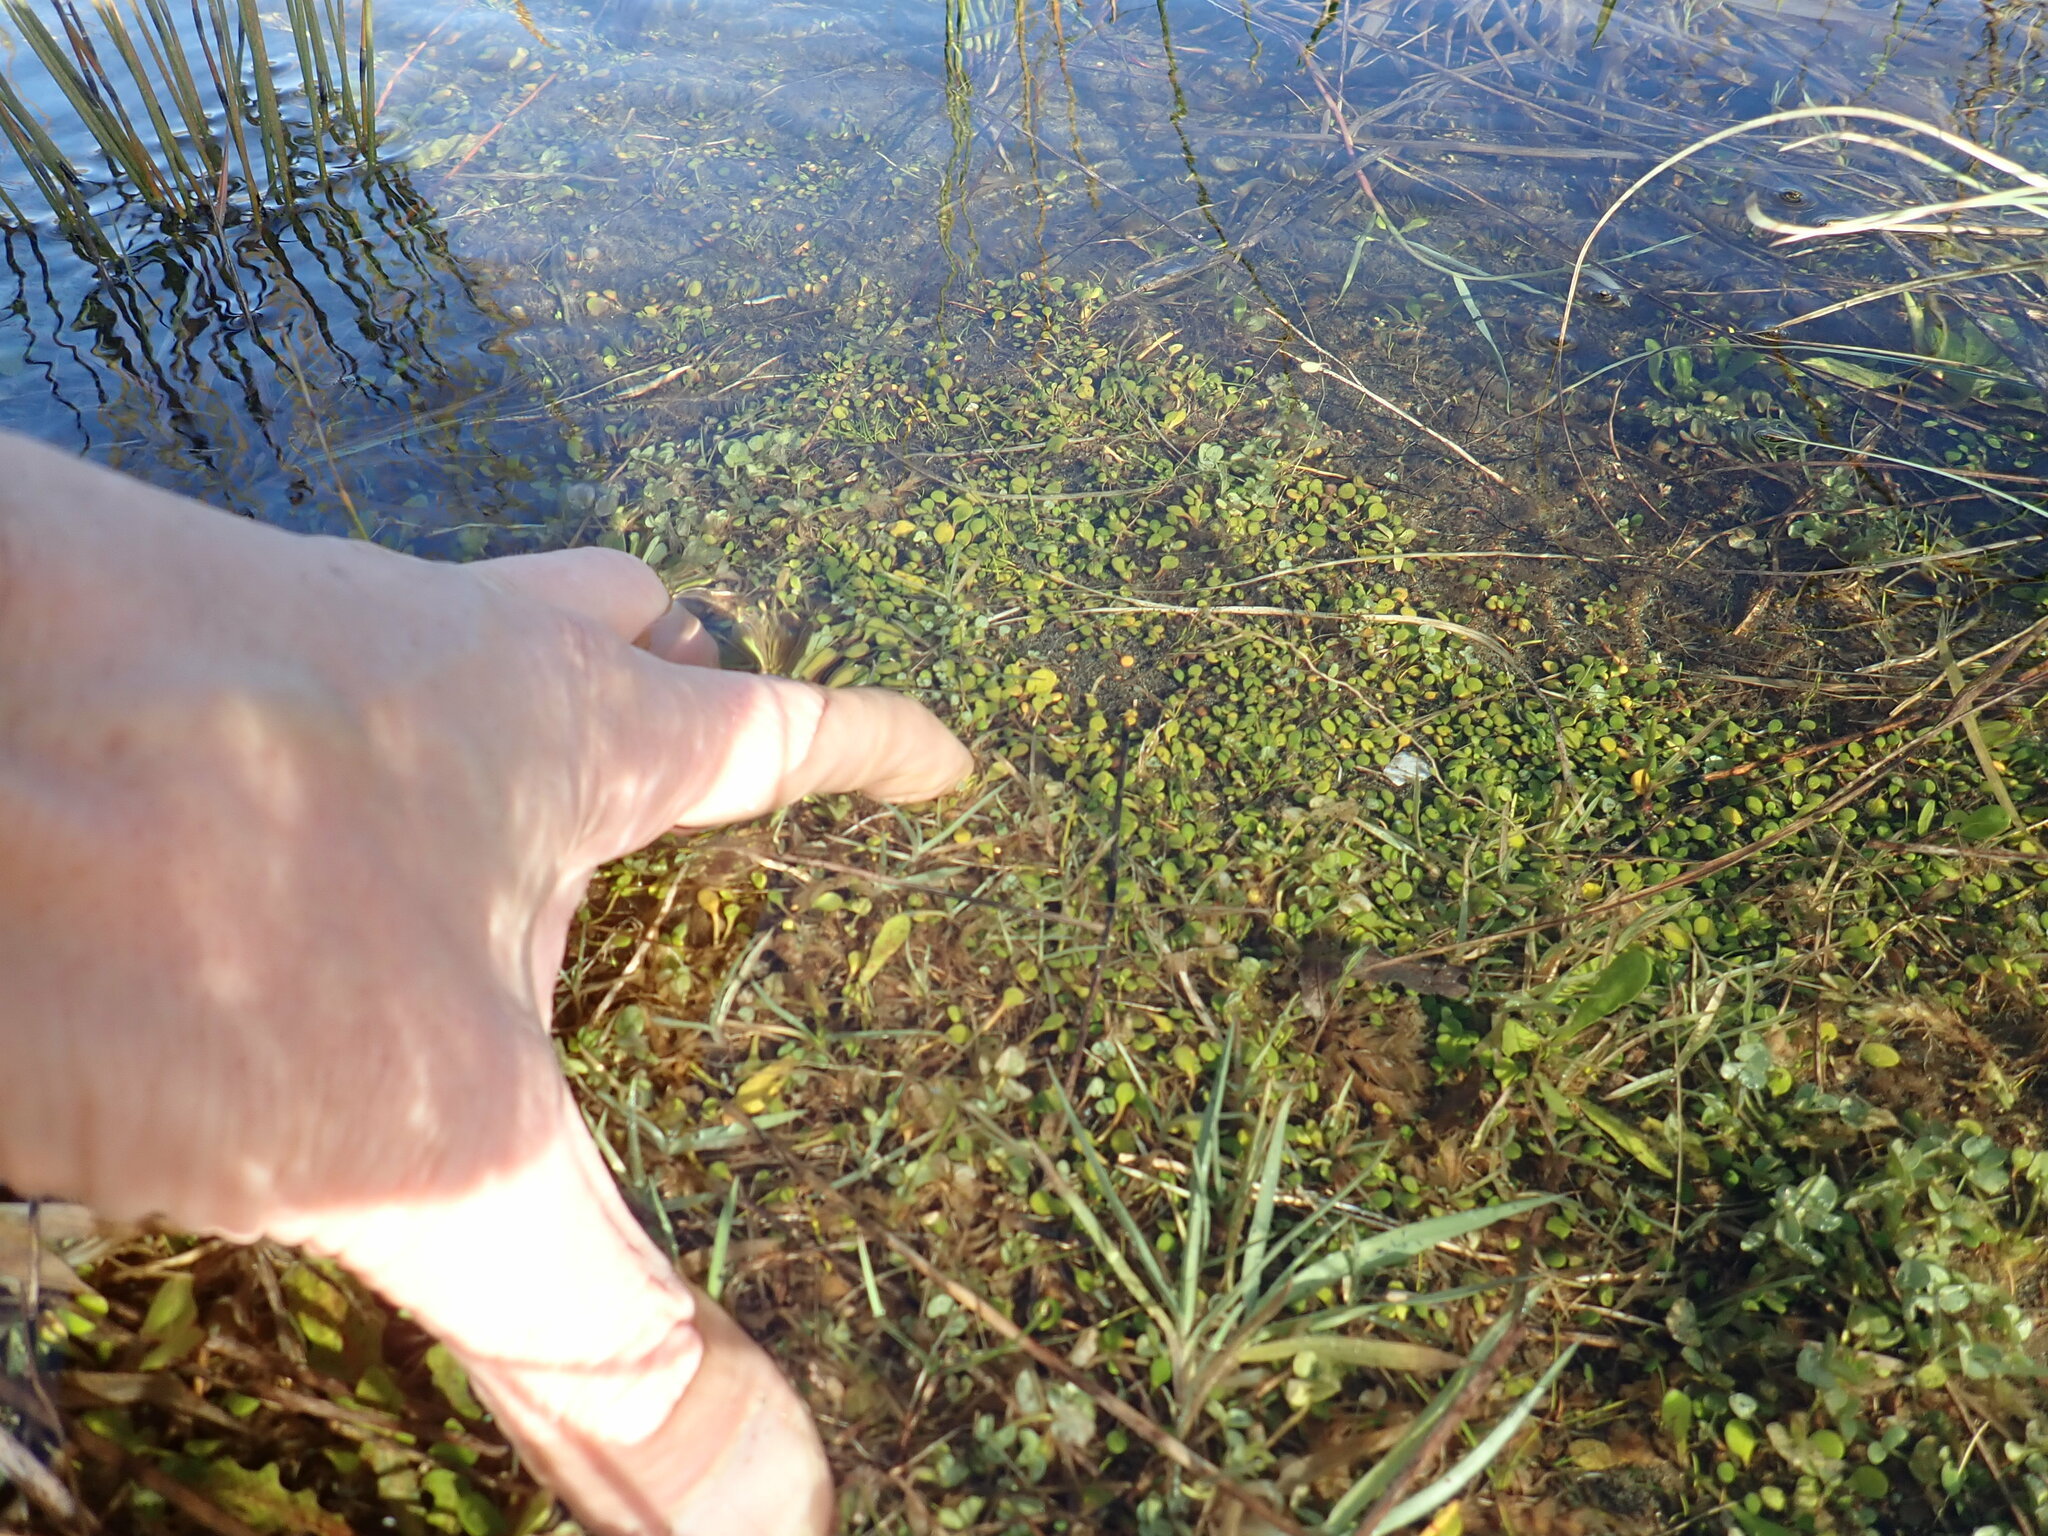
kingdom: Plantae
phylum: Tracheophyta
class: Magnoliopsida
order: Asterales
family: Goodeniaceae
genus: Goodenia
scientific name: Goodenia heenanii
